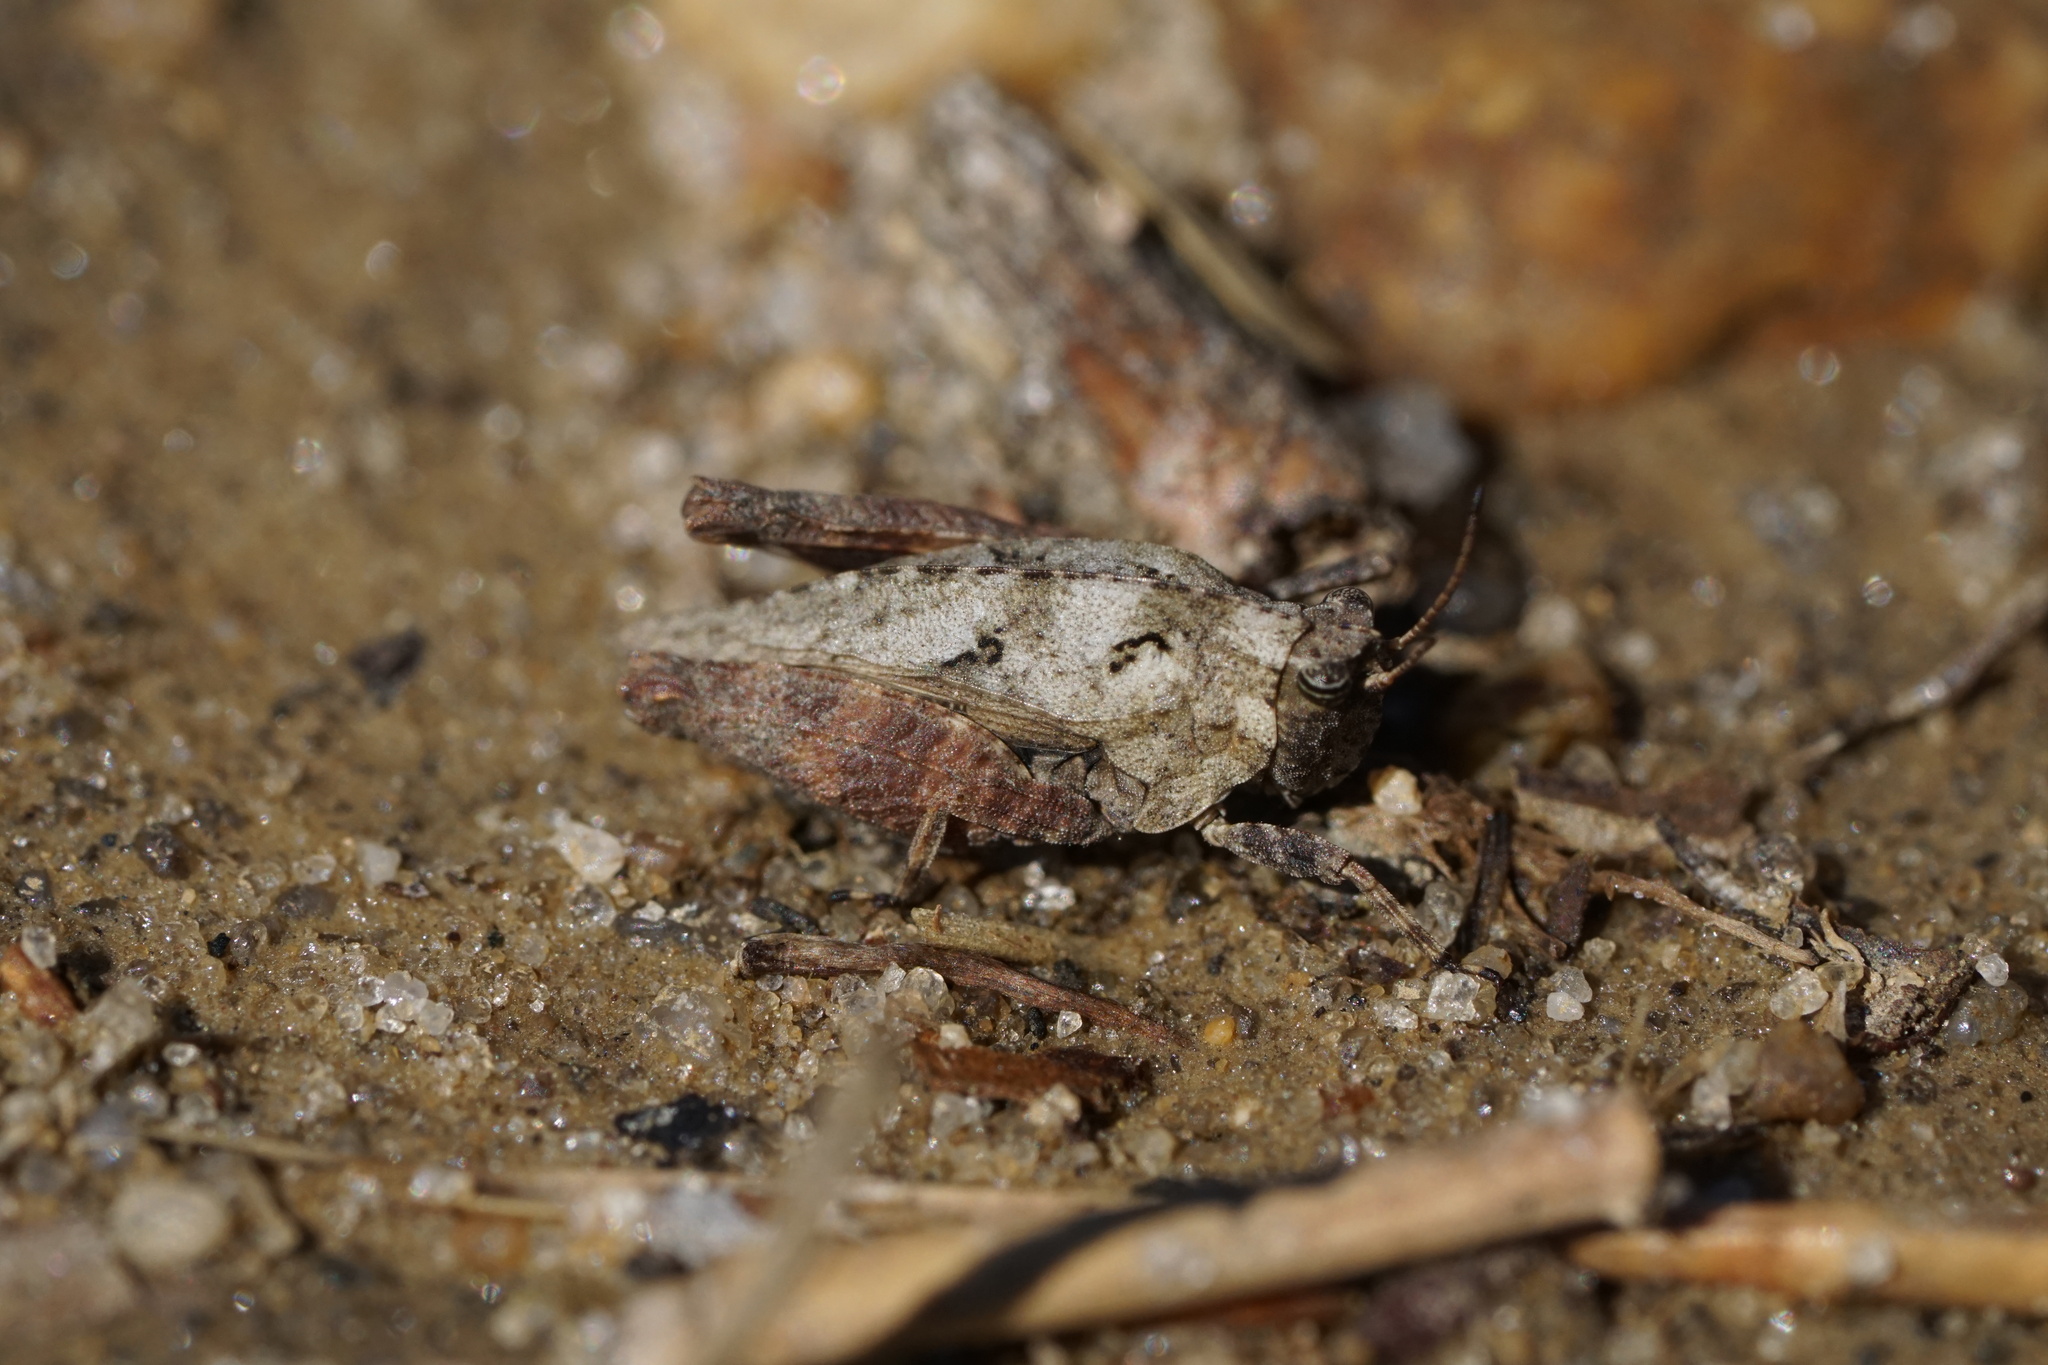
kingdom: Animalia
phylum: Arthropoda
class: Insecta
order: Orthoptera
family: Tetrigidae
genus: Nomotettix
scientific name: Nomotettix cristatus
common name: Crested grouse locust
